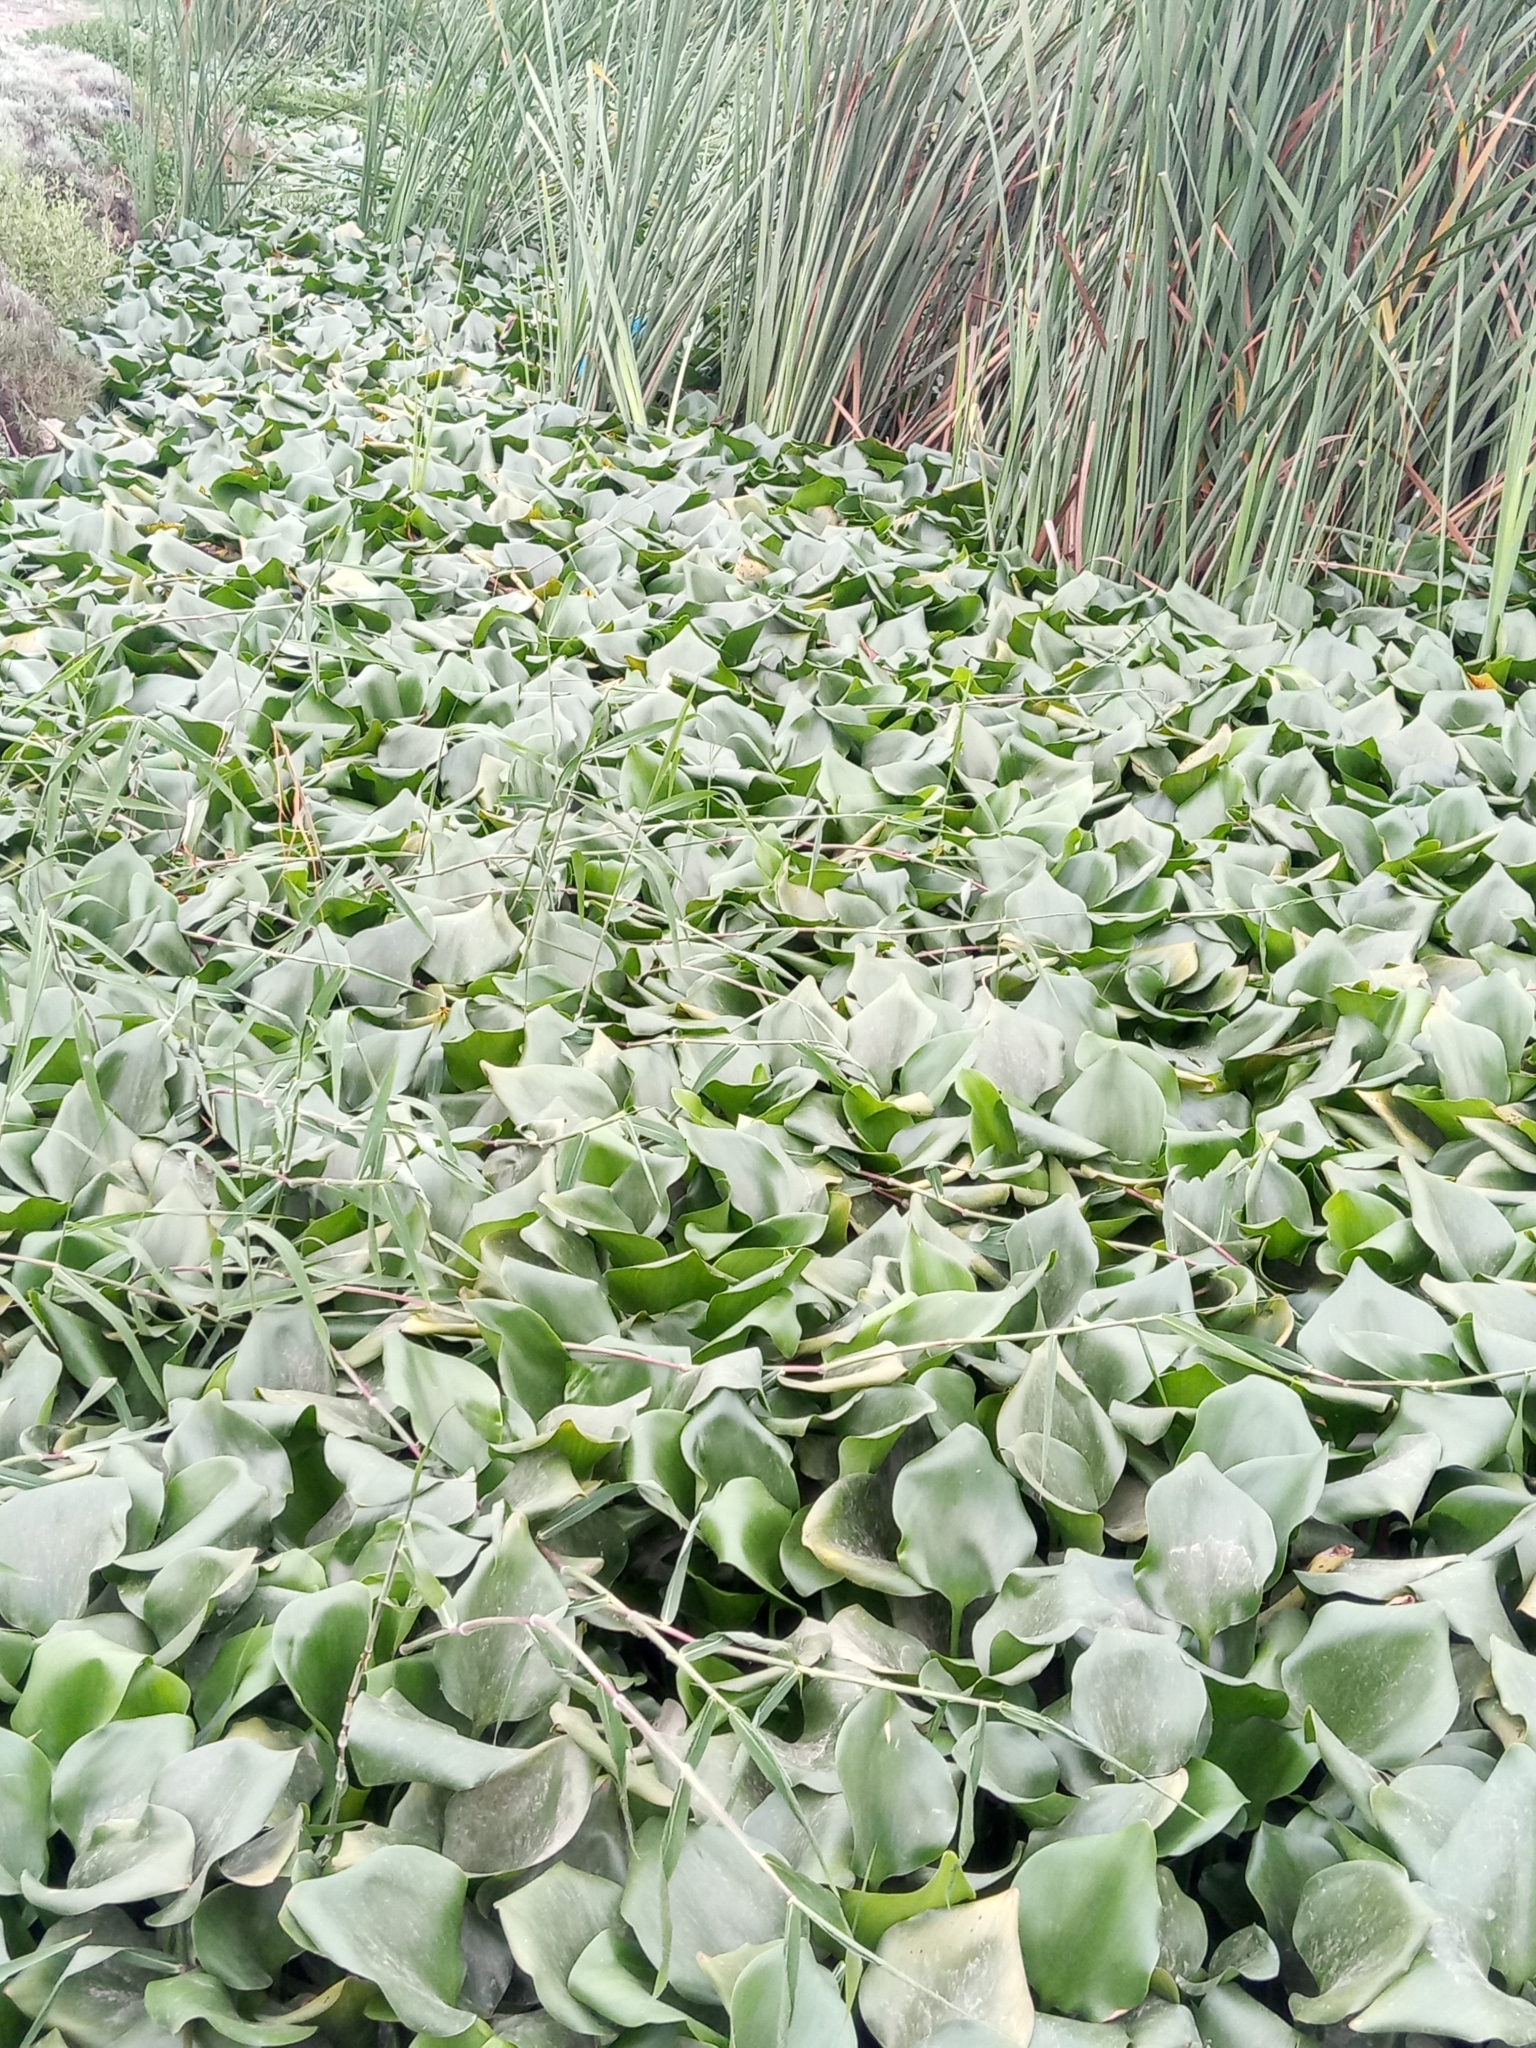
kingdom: Plantae
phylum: Tracheophyta
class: Liliopsida
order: Commelinales
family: Pontederiaceae
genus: Pontederia
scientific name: Pontederia crassipes
